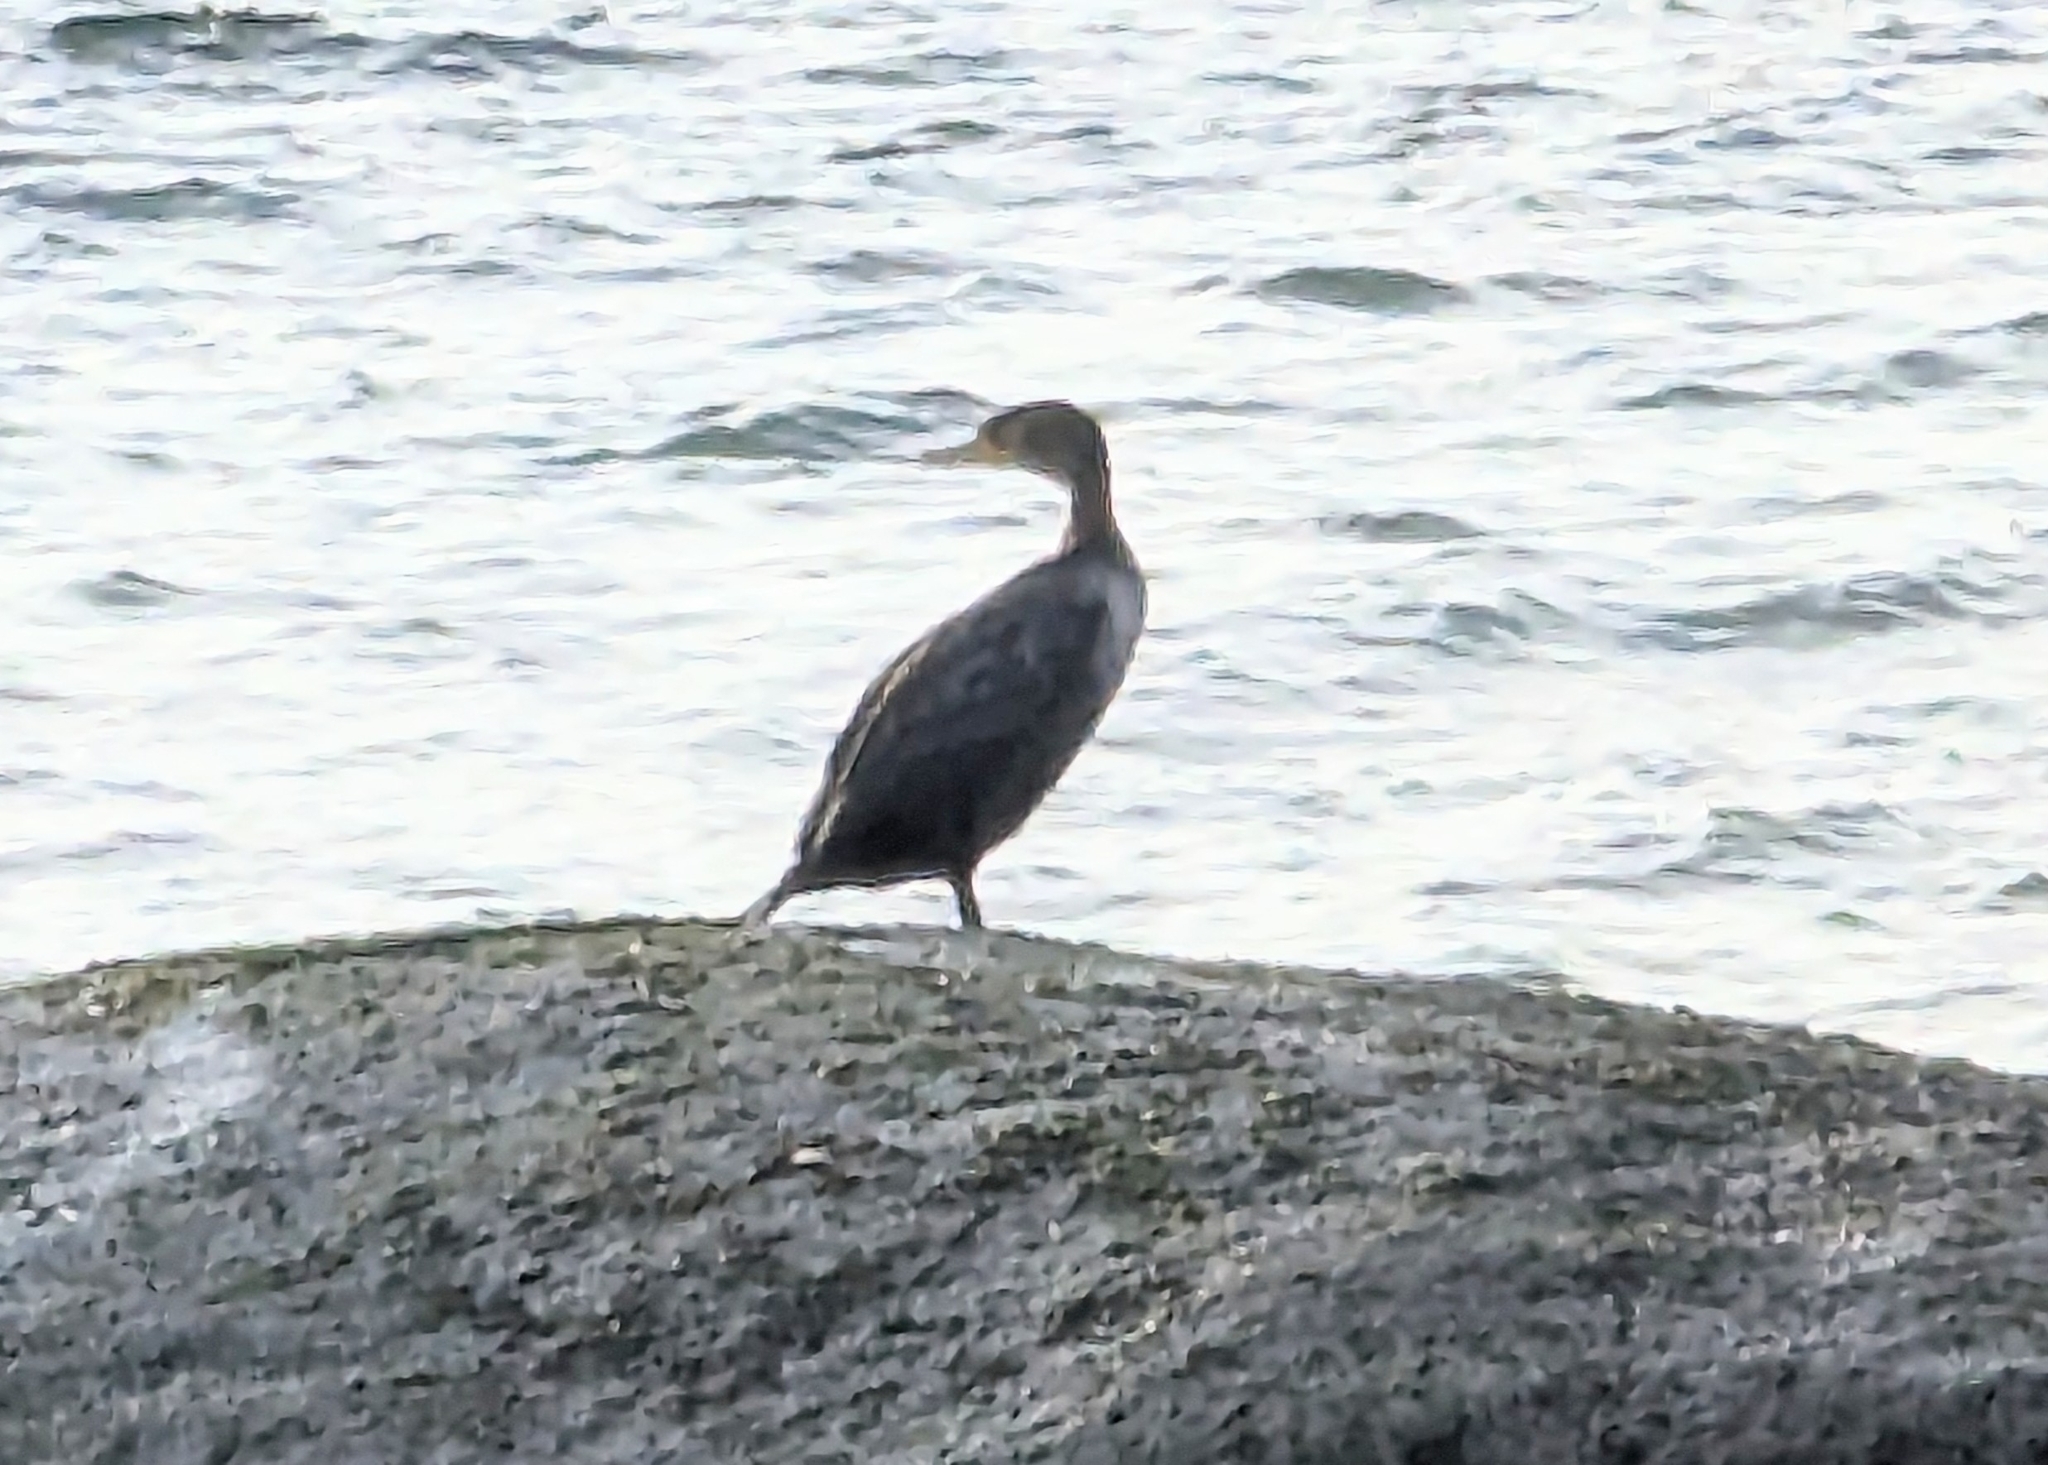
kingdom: Animalia
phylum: Chordata
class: Aves
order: Suliformes
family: Phalacrocoracidae
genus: Phalacrocorax
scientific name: Phalacrocorax auritus
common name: Double-crested cormorant
